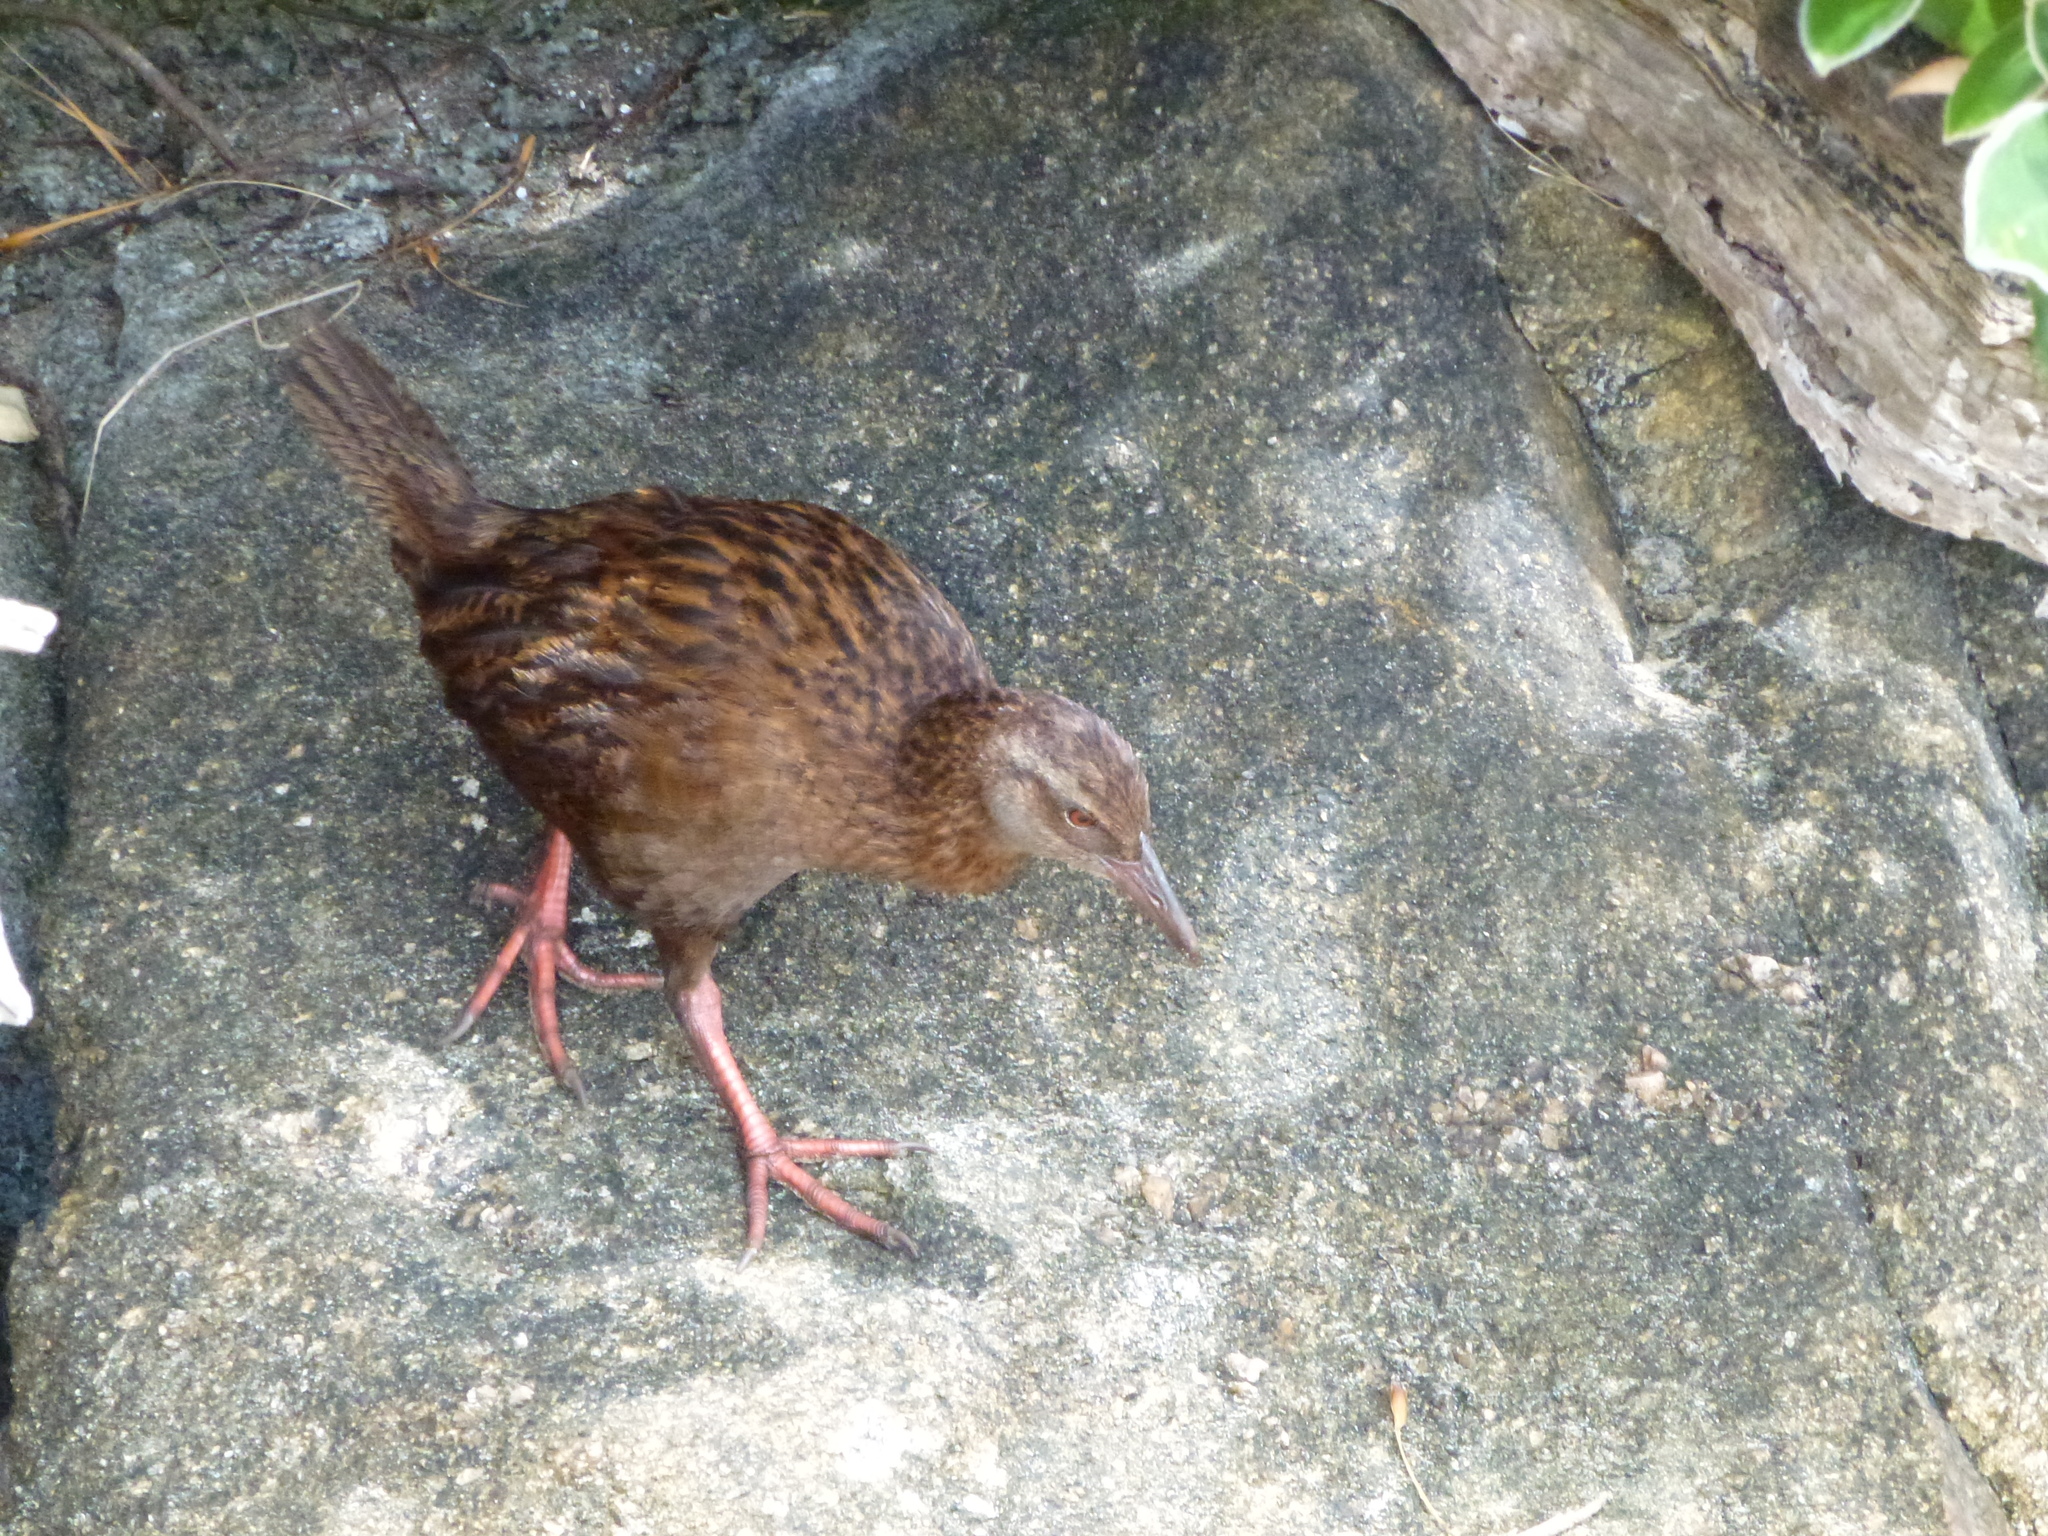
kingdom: Animalia
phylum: Chordata
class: Aves
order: Gruiformes
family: Rallidae
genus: Gallirallus
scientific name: Gallirallus australis
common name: Weka
